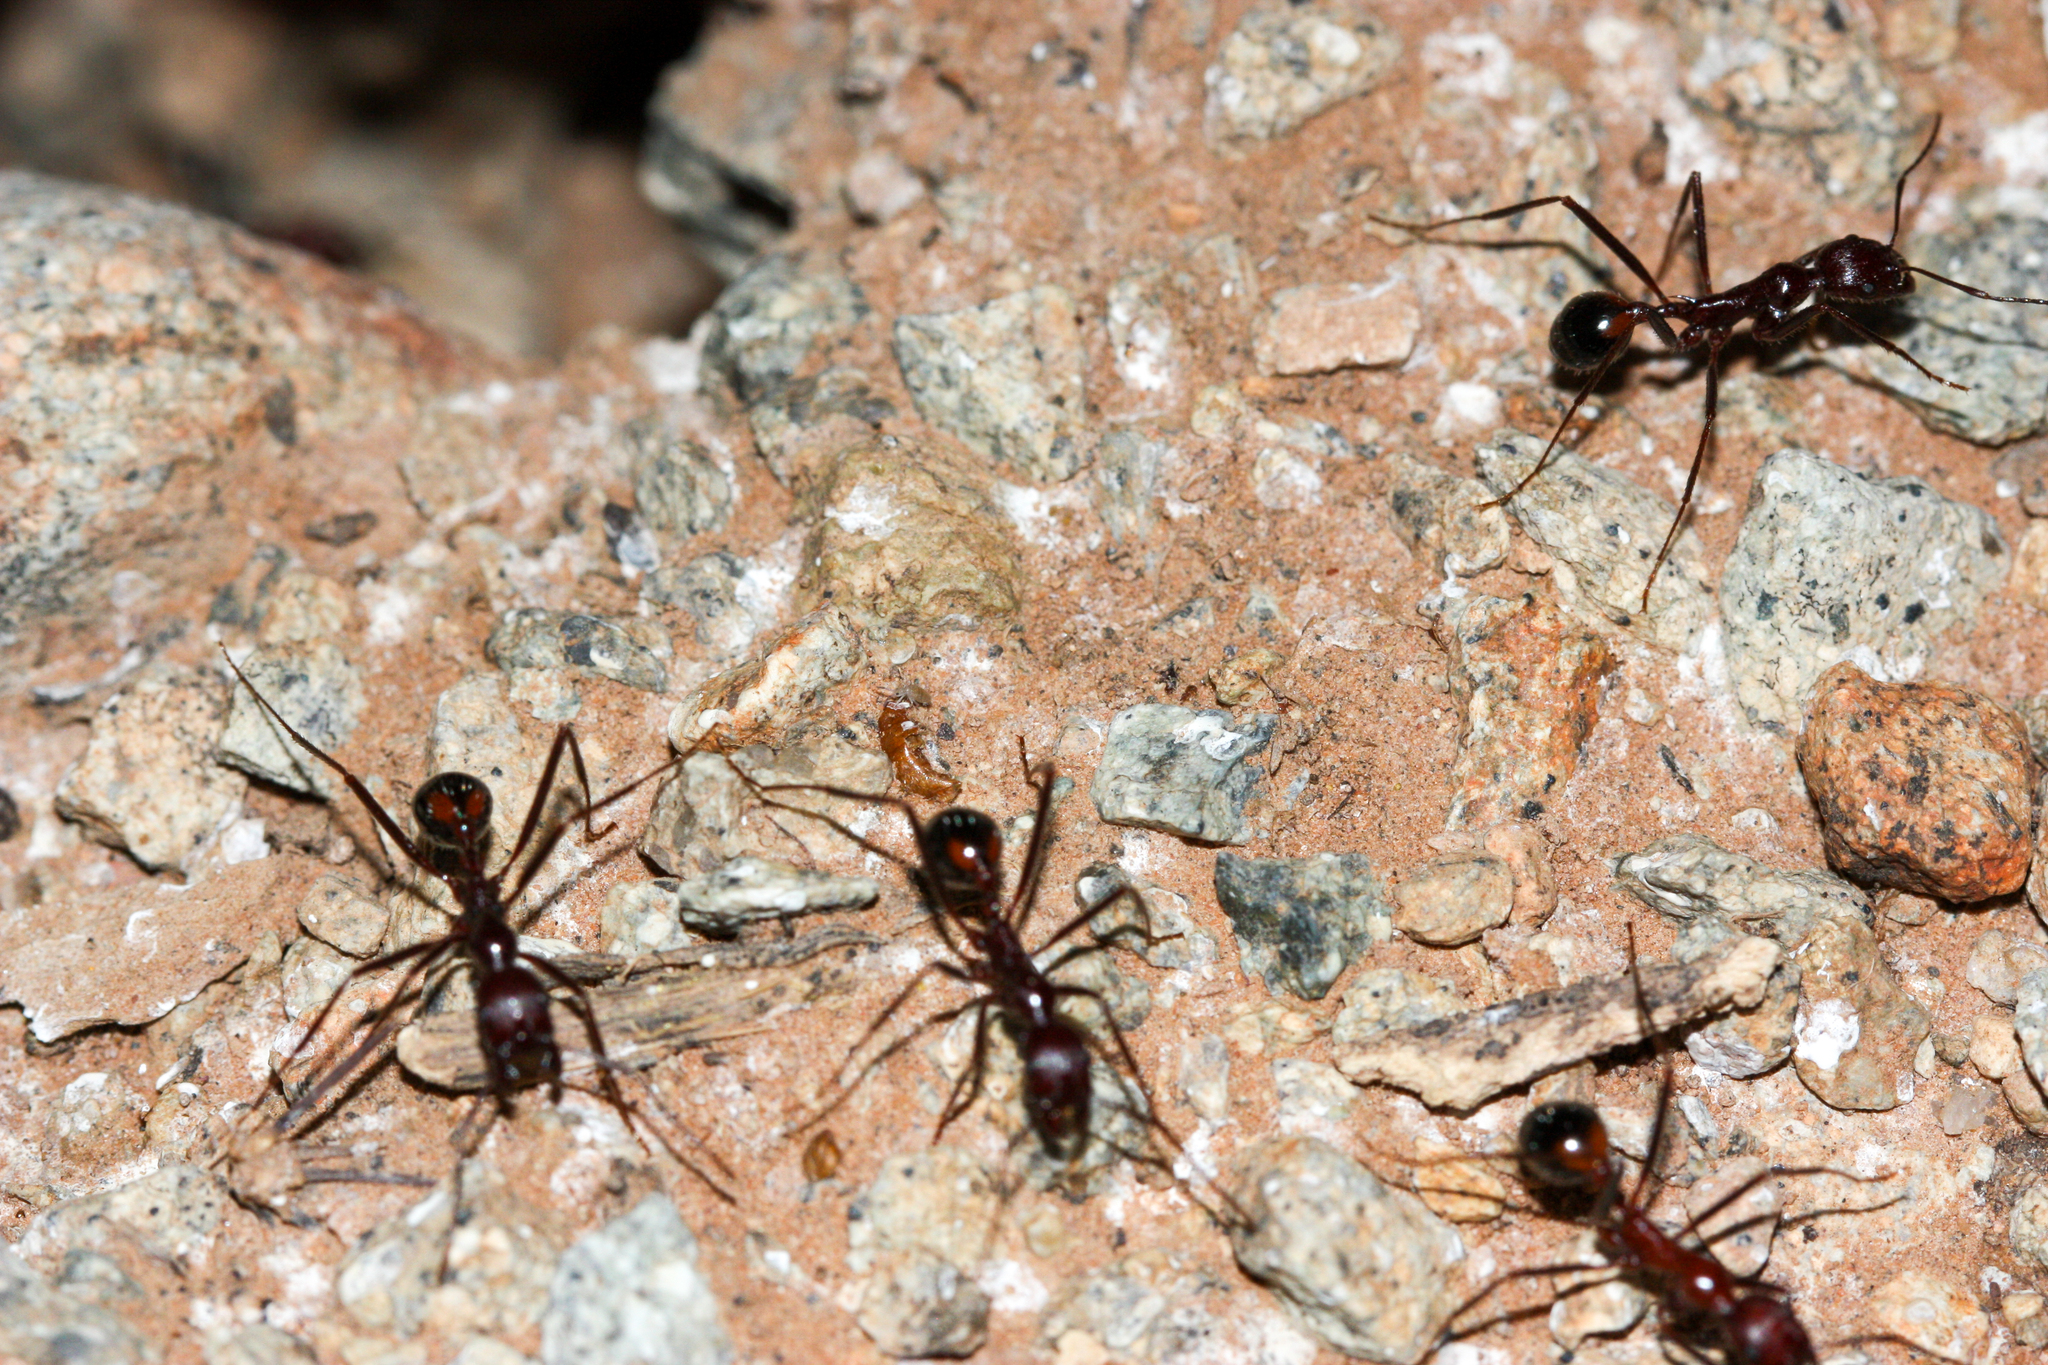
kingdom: Animalia
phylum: Arthropoda
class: Insecta
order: Hymenoptera
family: Formicidae
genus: Novomessor
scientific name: Novomessor cockerelli
